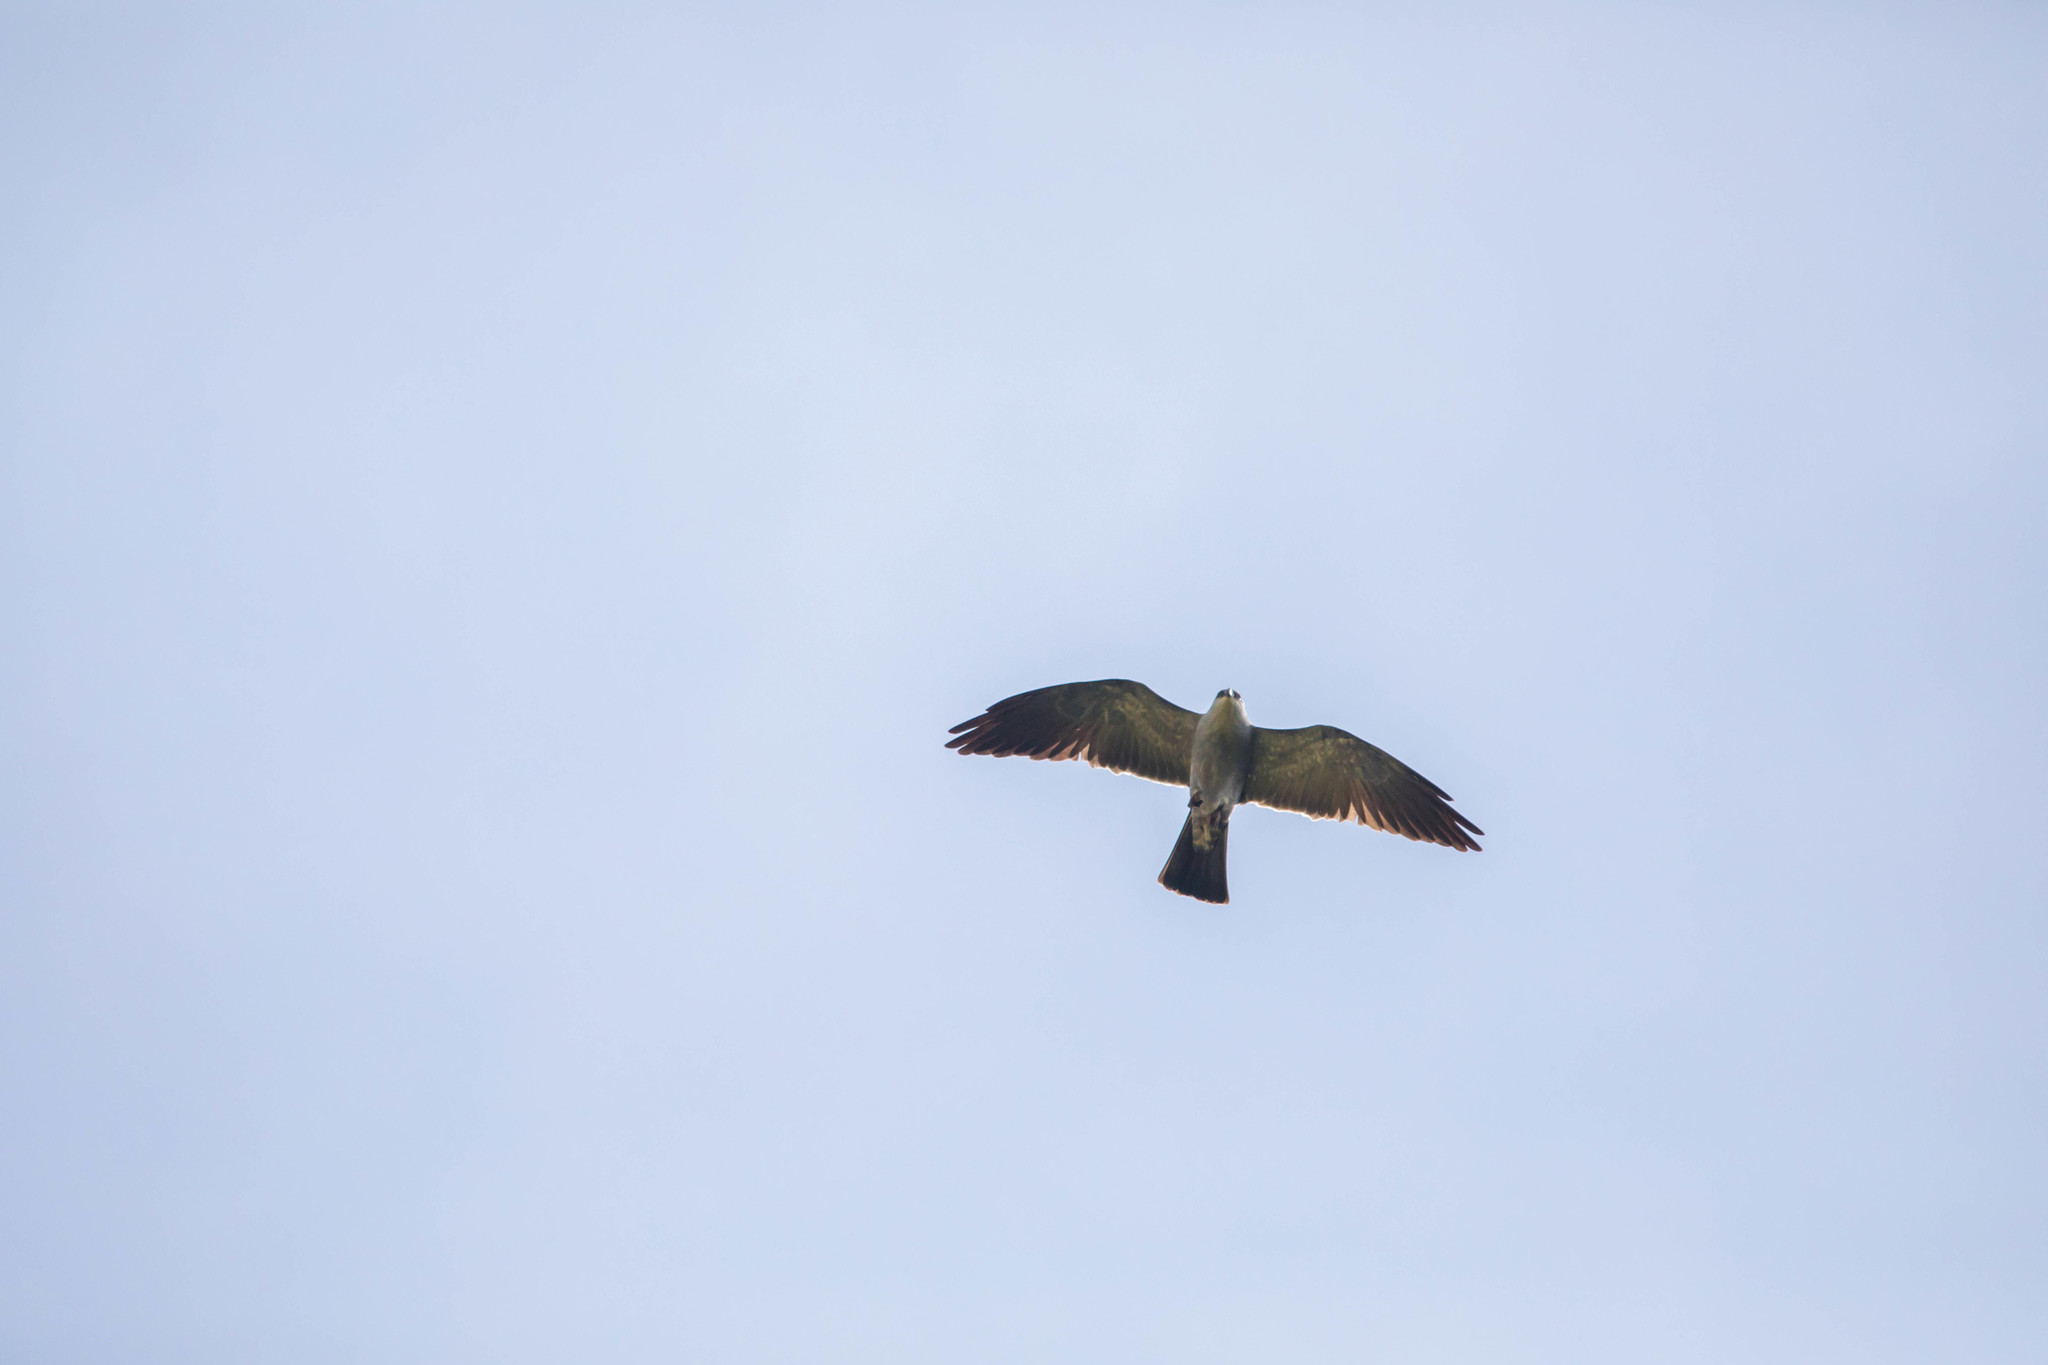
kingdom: Animalia
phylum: Chordata
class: Aves
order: Accipitriformes
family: Accipitridae
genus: Ictinia
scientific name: Ictinia mississippiensis
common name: Mississippi kite
